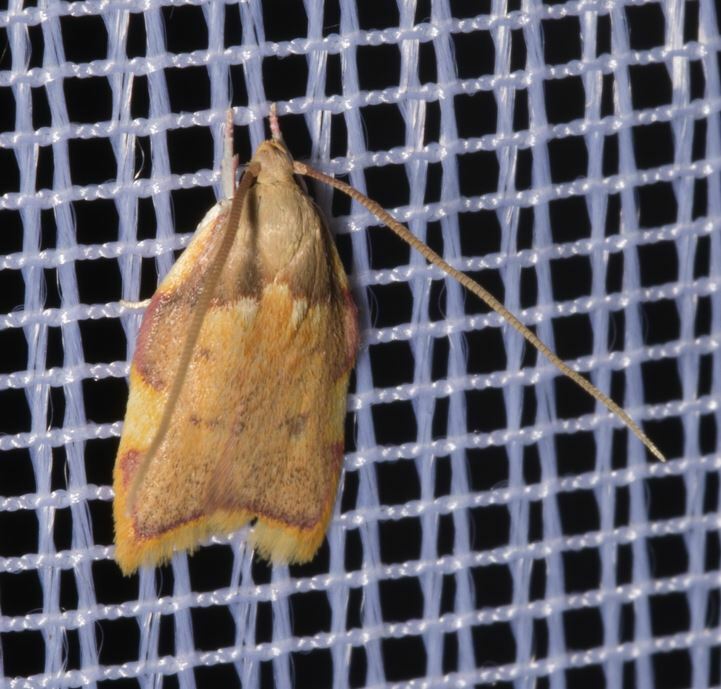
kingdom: Animalia
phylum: Arthropoda
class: Insecta
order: Lepidoptera
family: Peleopodidae
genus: Carcina
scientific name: Carcina quercana
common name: Moth
